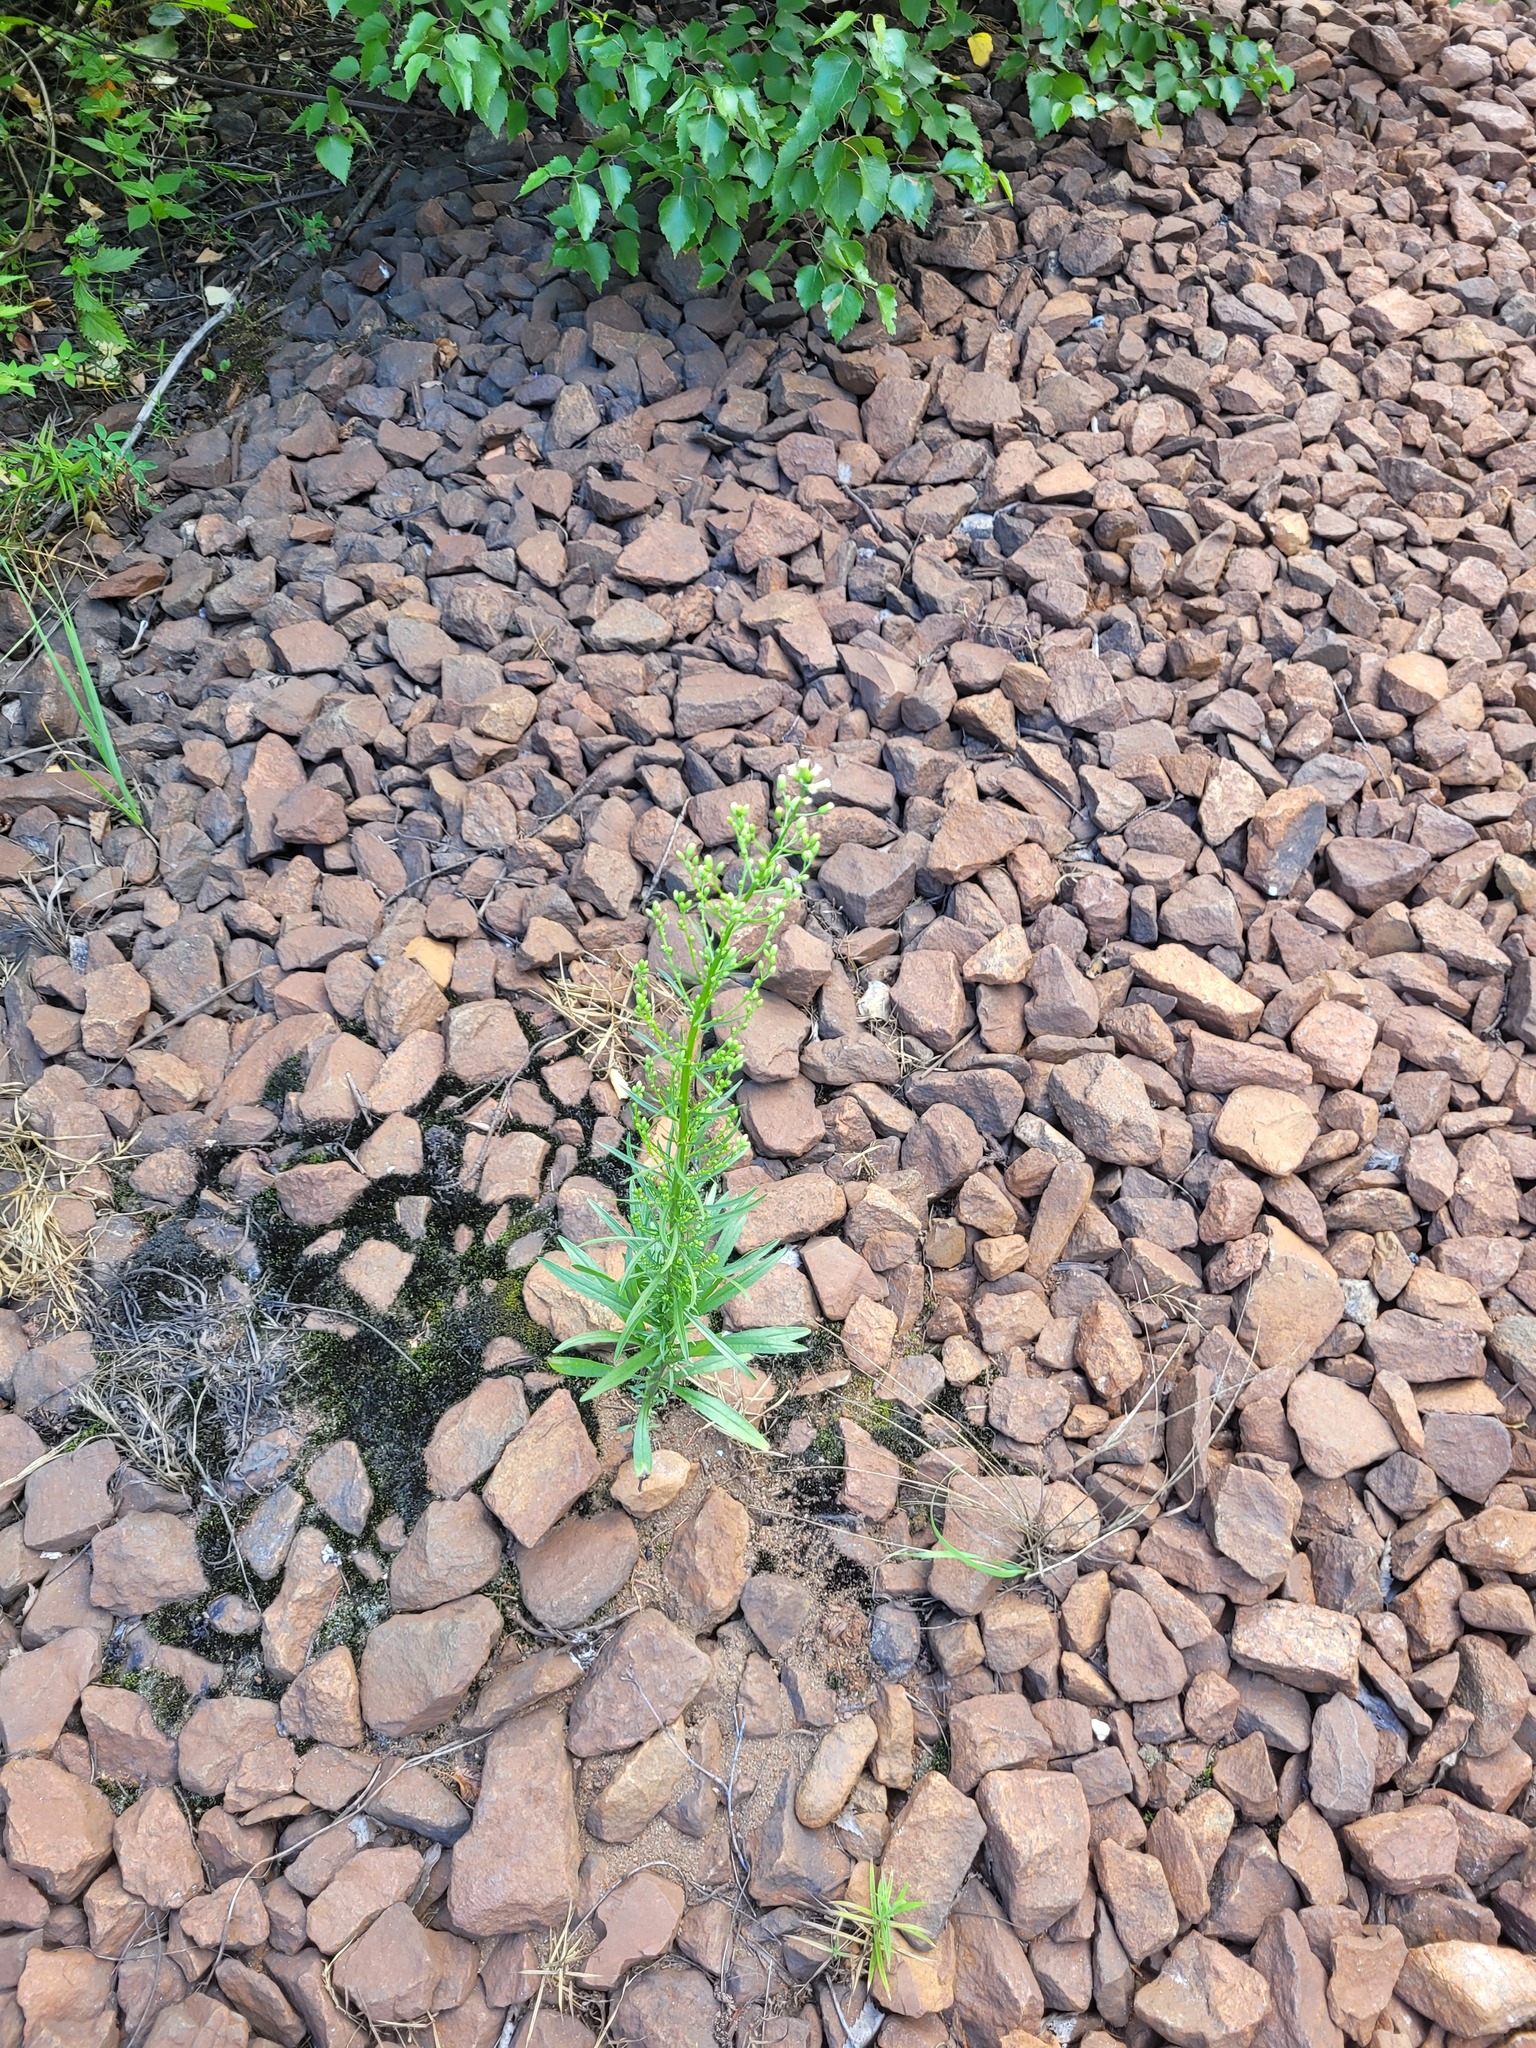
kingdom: Plantae
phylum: Tracheophyta
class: Magnoliopsida
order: Asterales
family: Asteraceae
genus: Erigeron
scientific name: Erigeron canadensis
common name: Canadian fleabane
